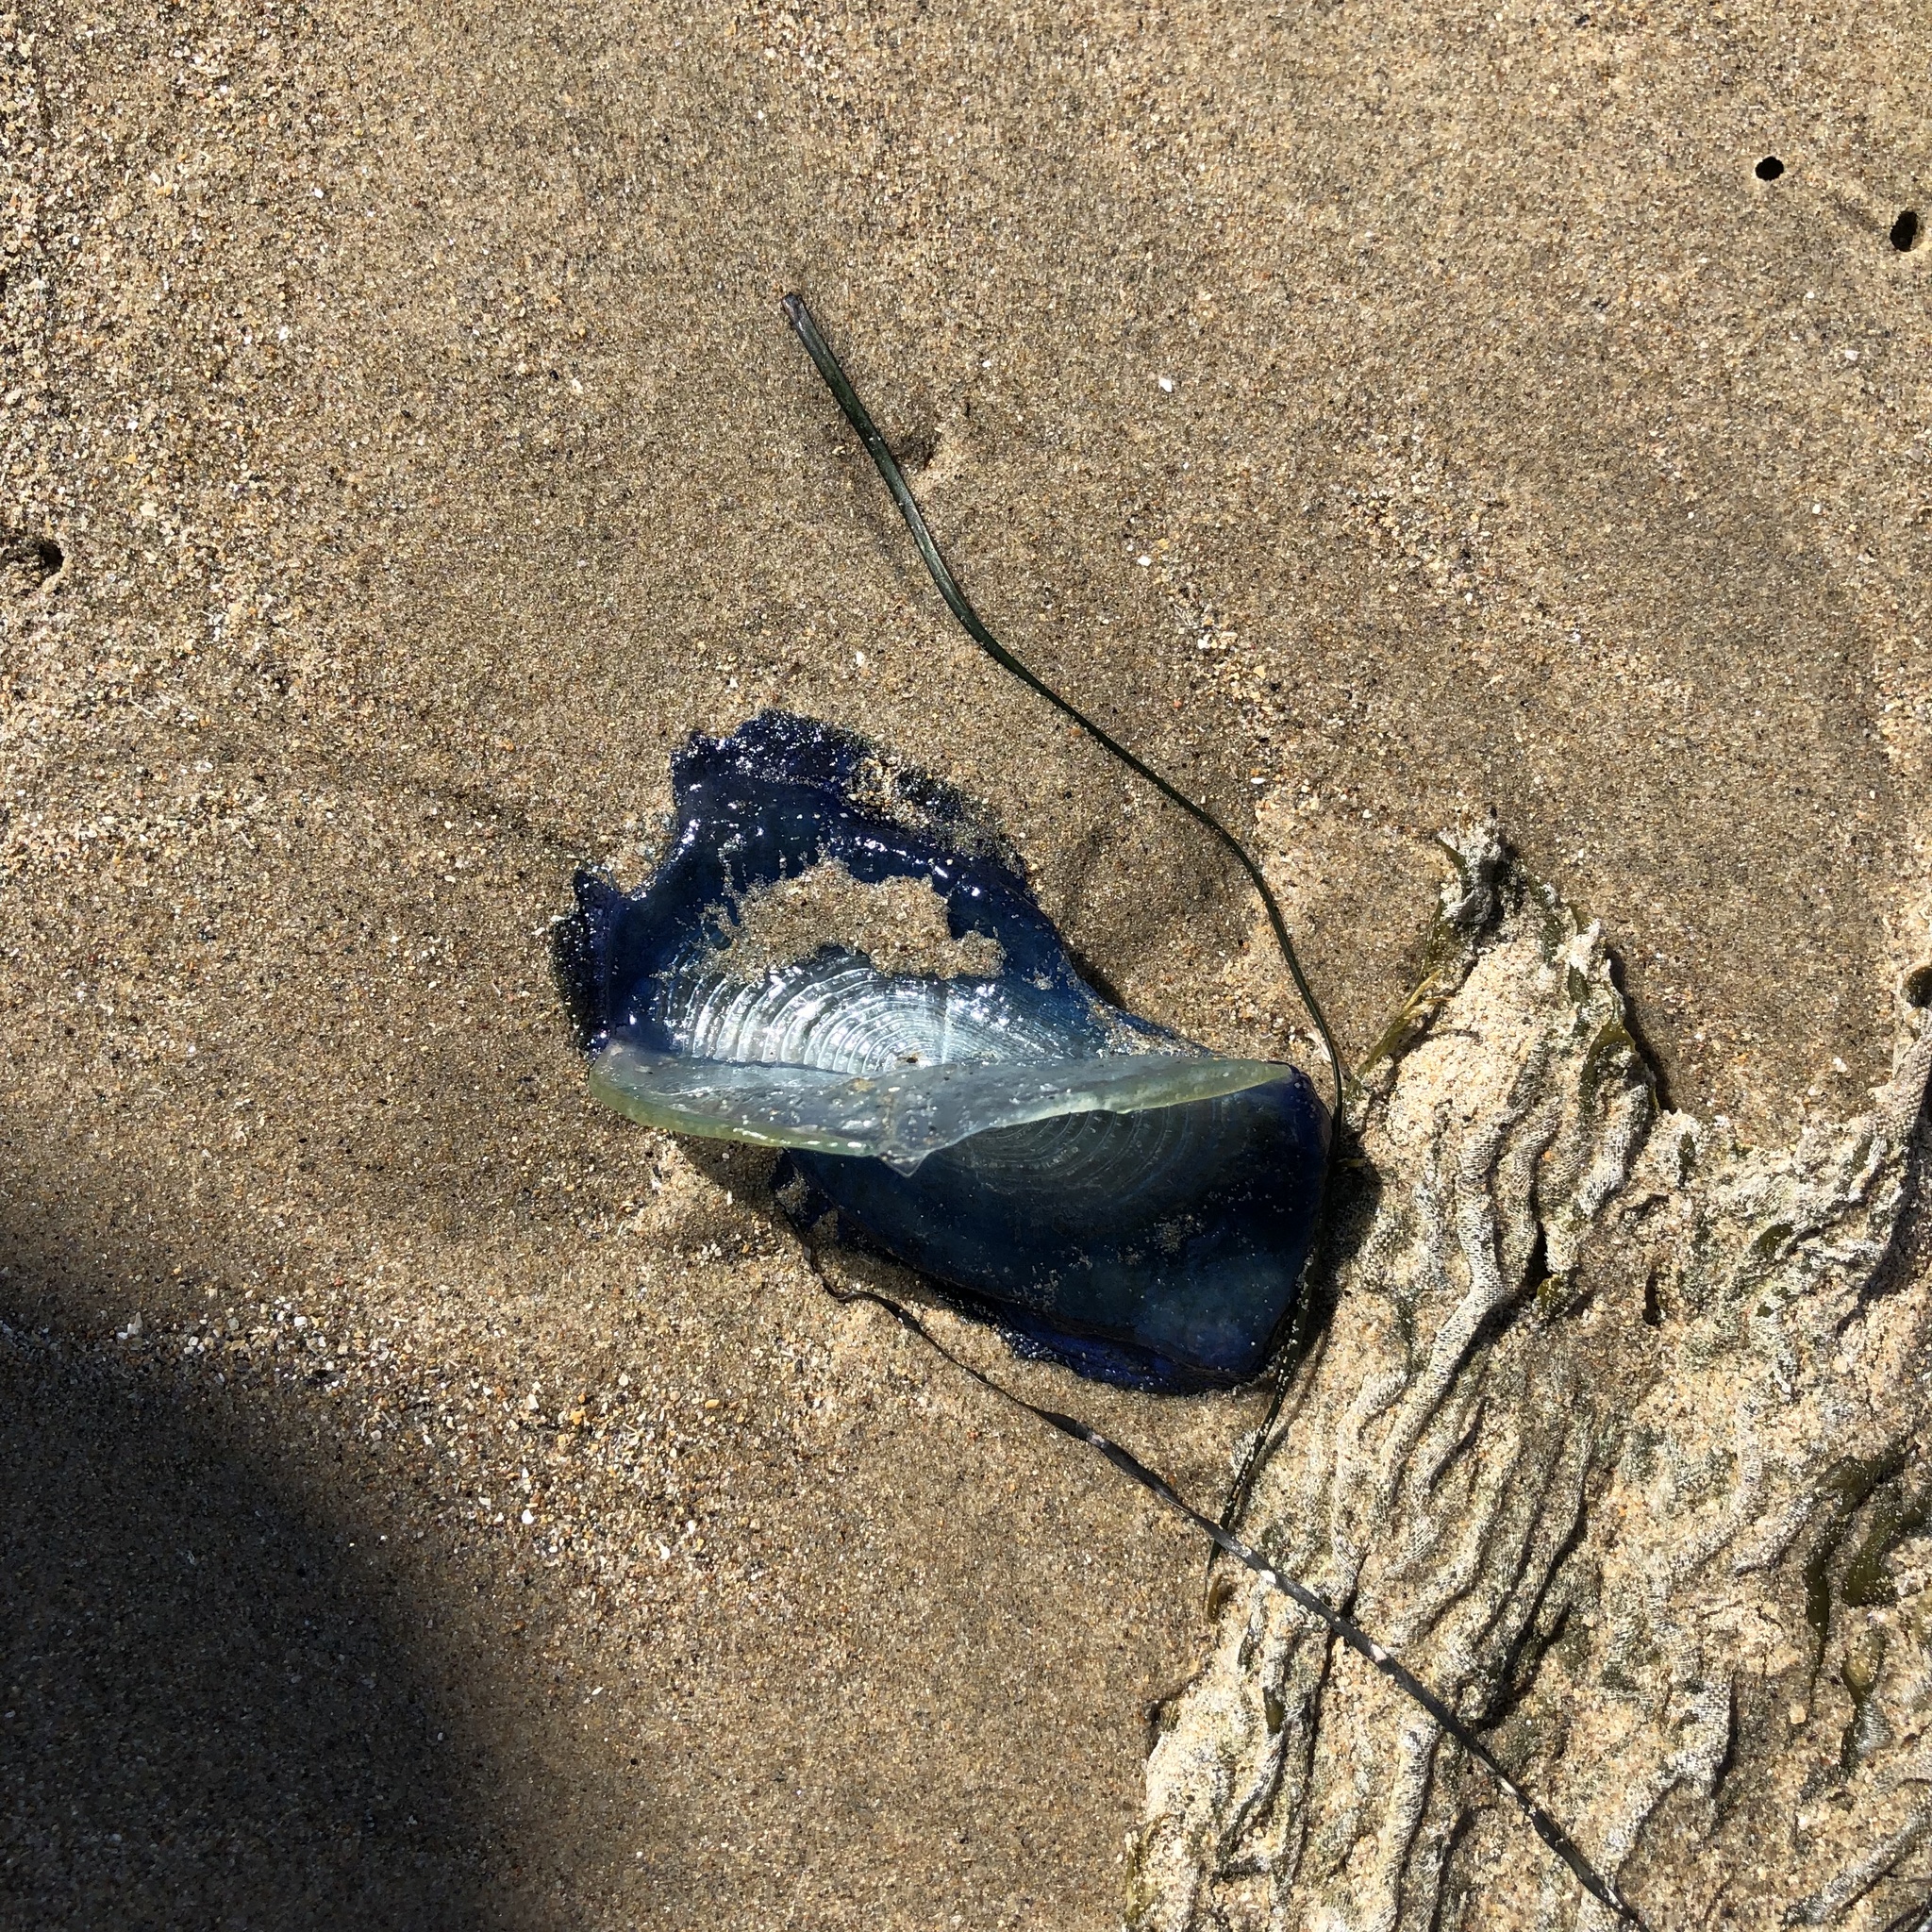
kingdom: Animalia
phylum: Cnidaria
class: Hydrozoa
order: Anthoathecata
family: Porpitidae
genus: Velella
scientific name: Velella velella
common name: By-the-wind-sailor
